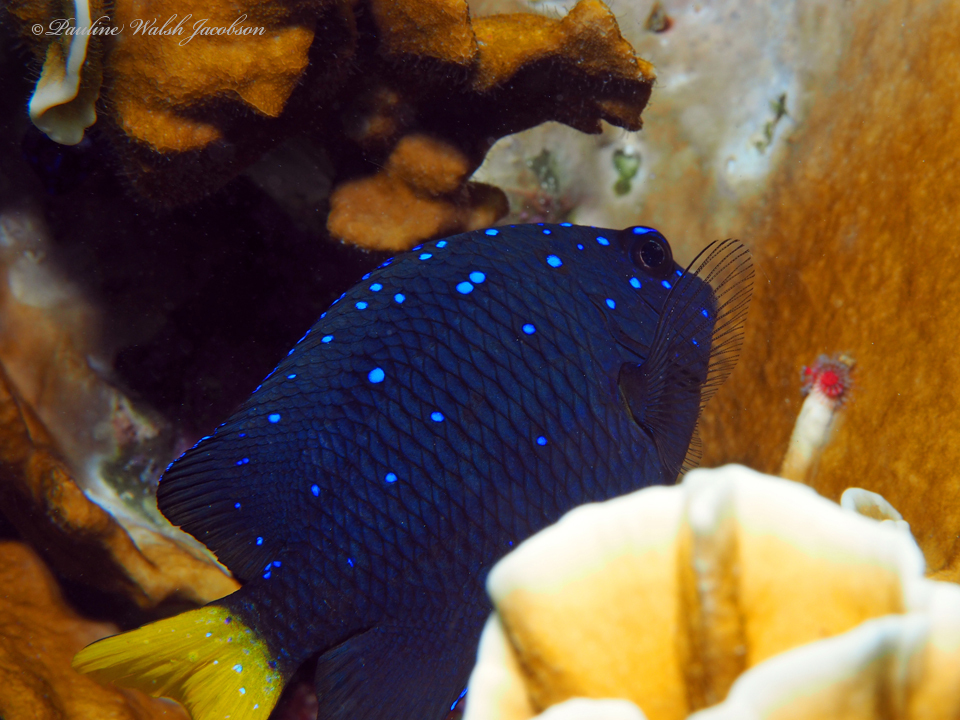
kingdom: Animalia
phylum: Chordata
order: Perciformes
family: Pomacentridae
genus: Microspathodon
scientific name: Microspathodon chrysurus
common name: Yellowtail damselfish
